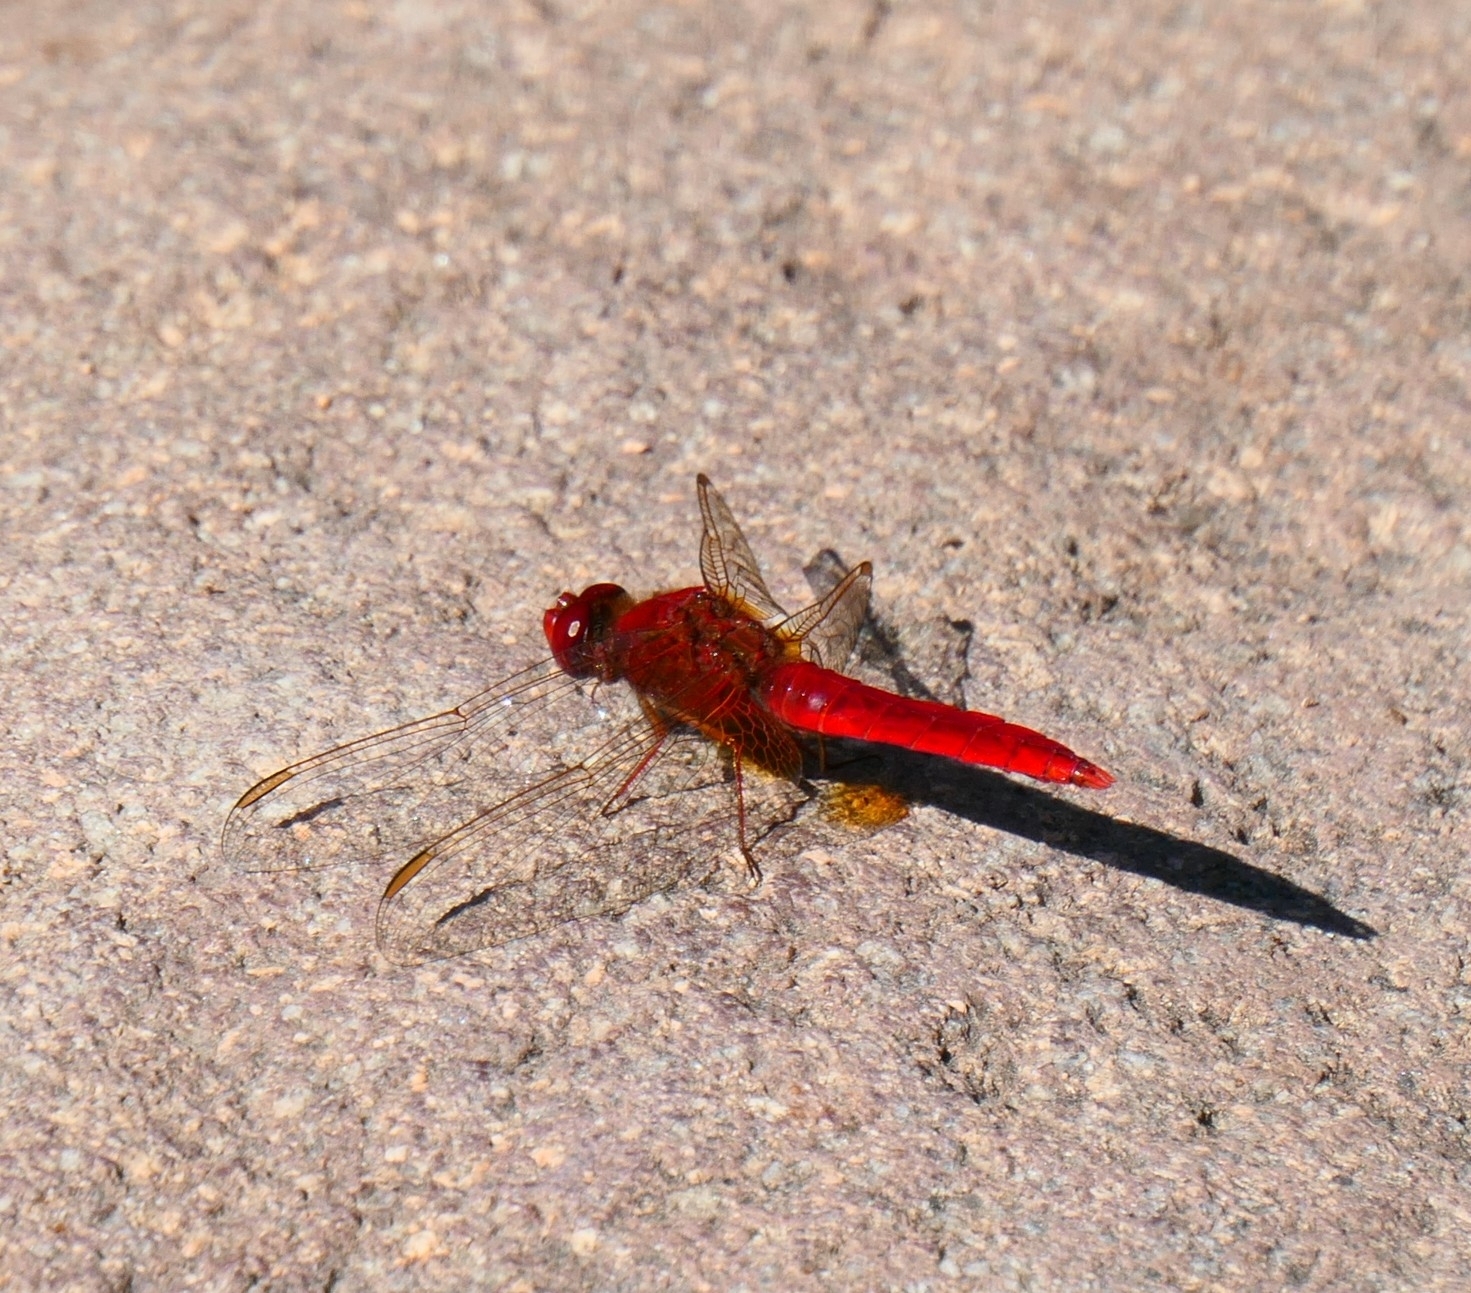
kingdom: Animalia
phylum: Arthropoda
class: Insecta
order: Odonata
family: Libellulidae
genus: Crocothemis
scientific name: Crocothemis erythraea
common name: Scarlet dragonfly
